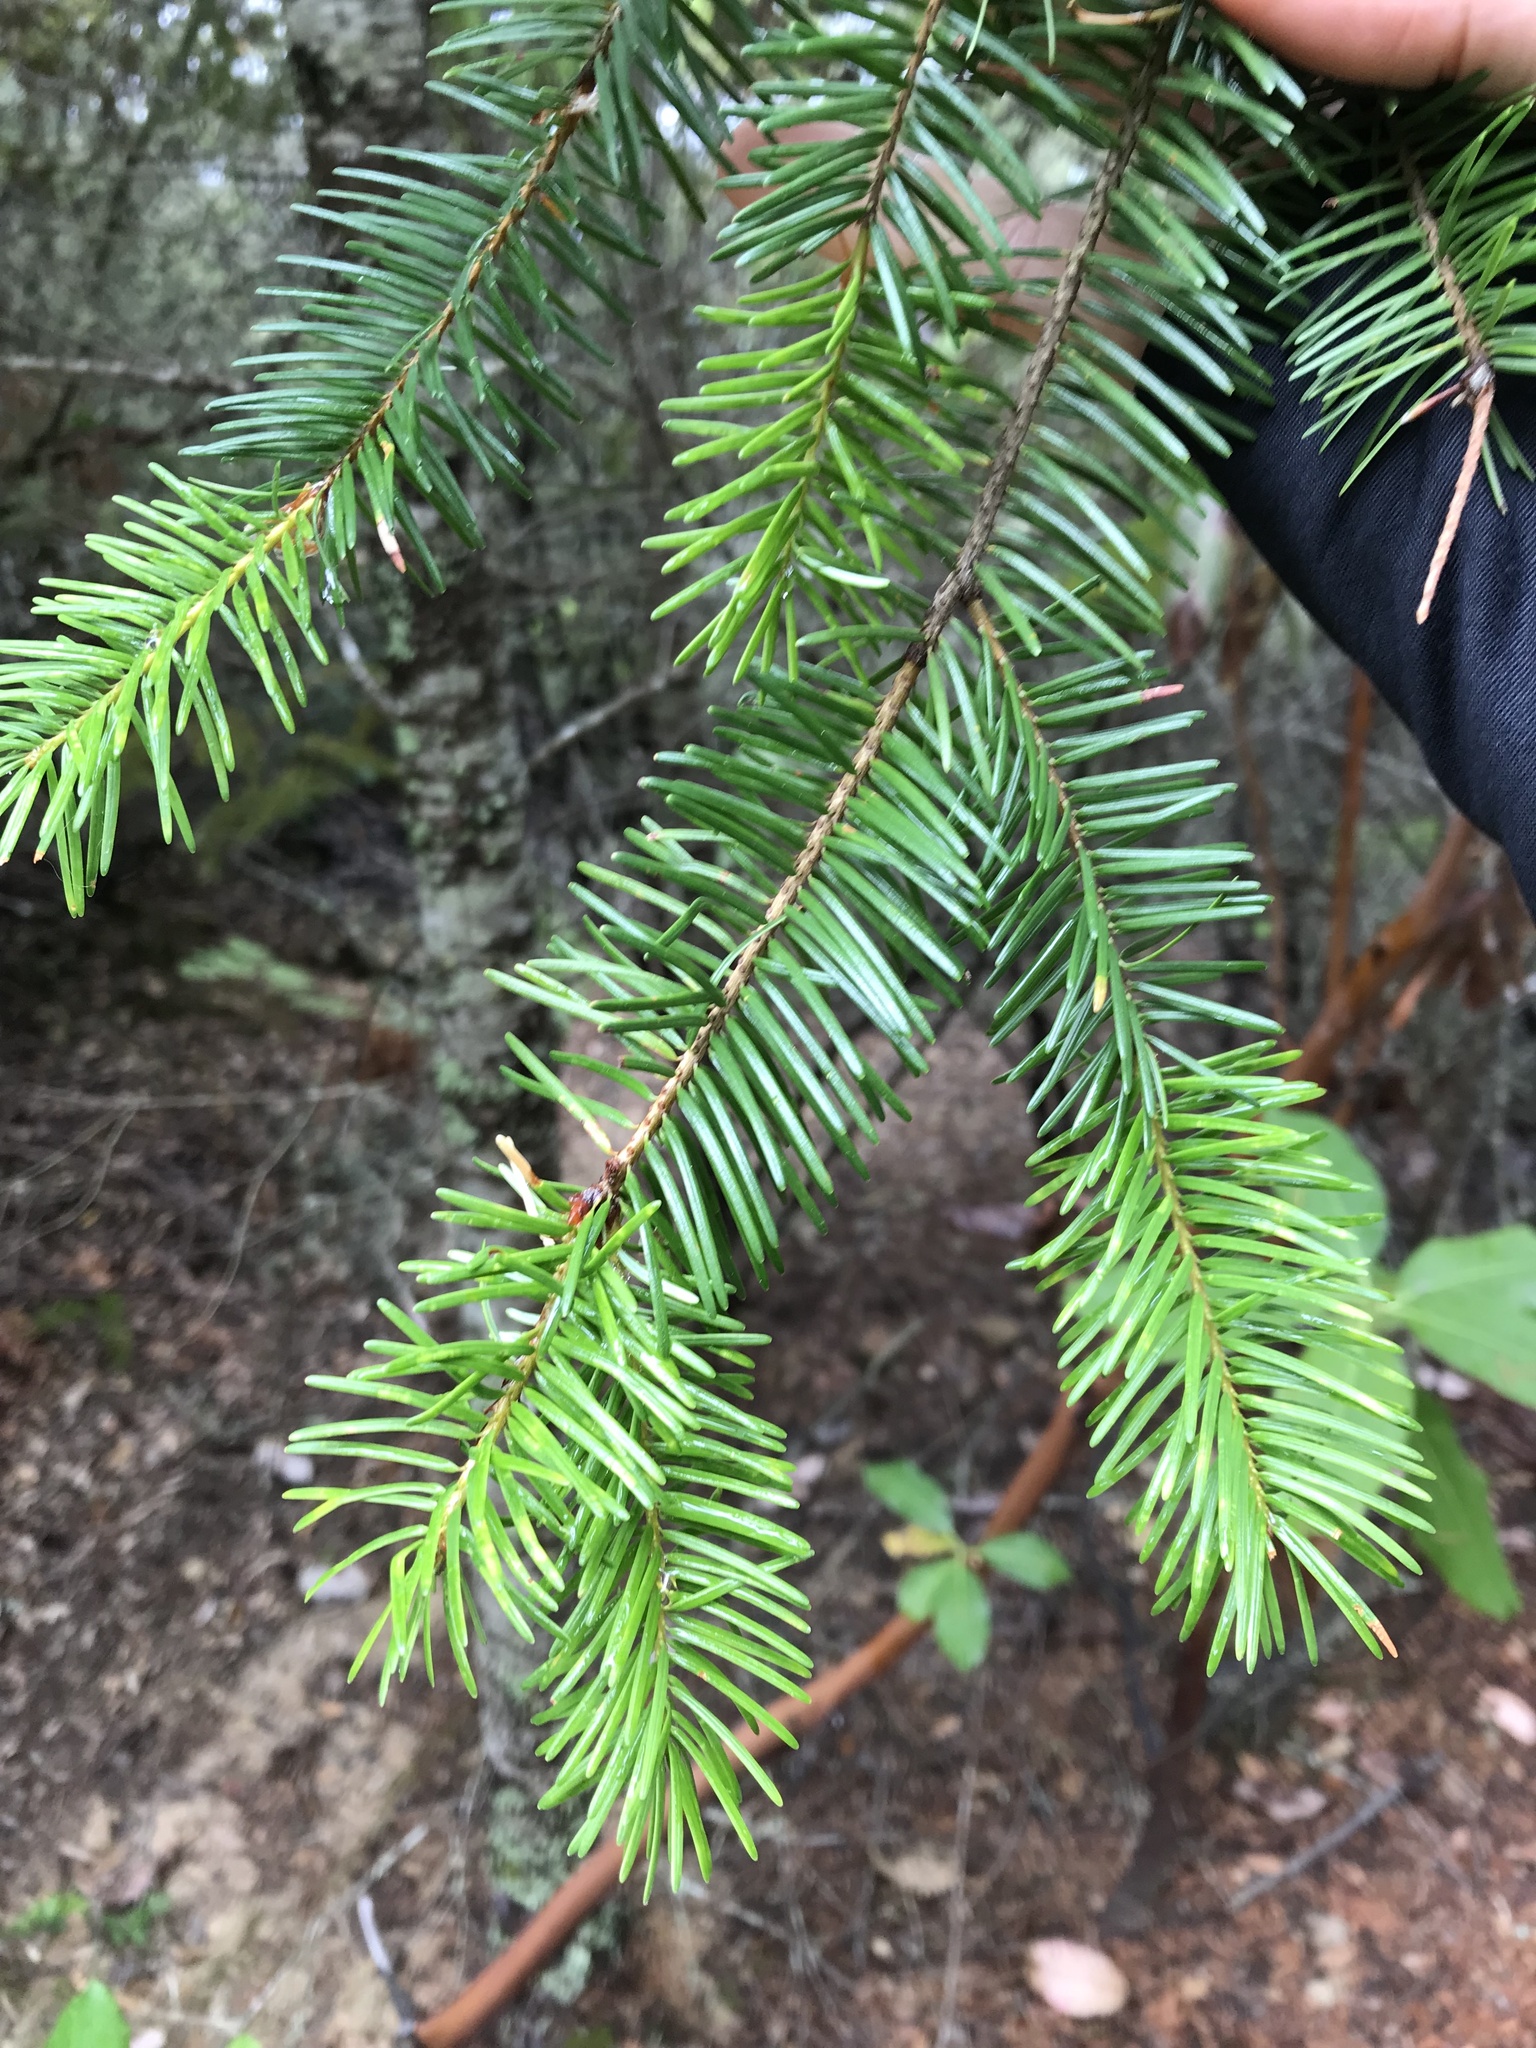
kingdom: Plantae
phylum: Tracheophyta
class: Pinopsida
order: Pinales
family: Pinaceae
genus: Pseudotsuga
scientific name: Pseudotsuga menziesii
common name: Douglas fir
